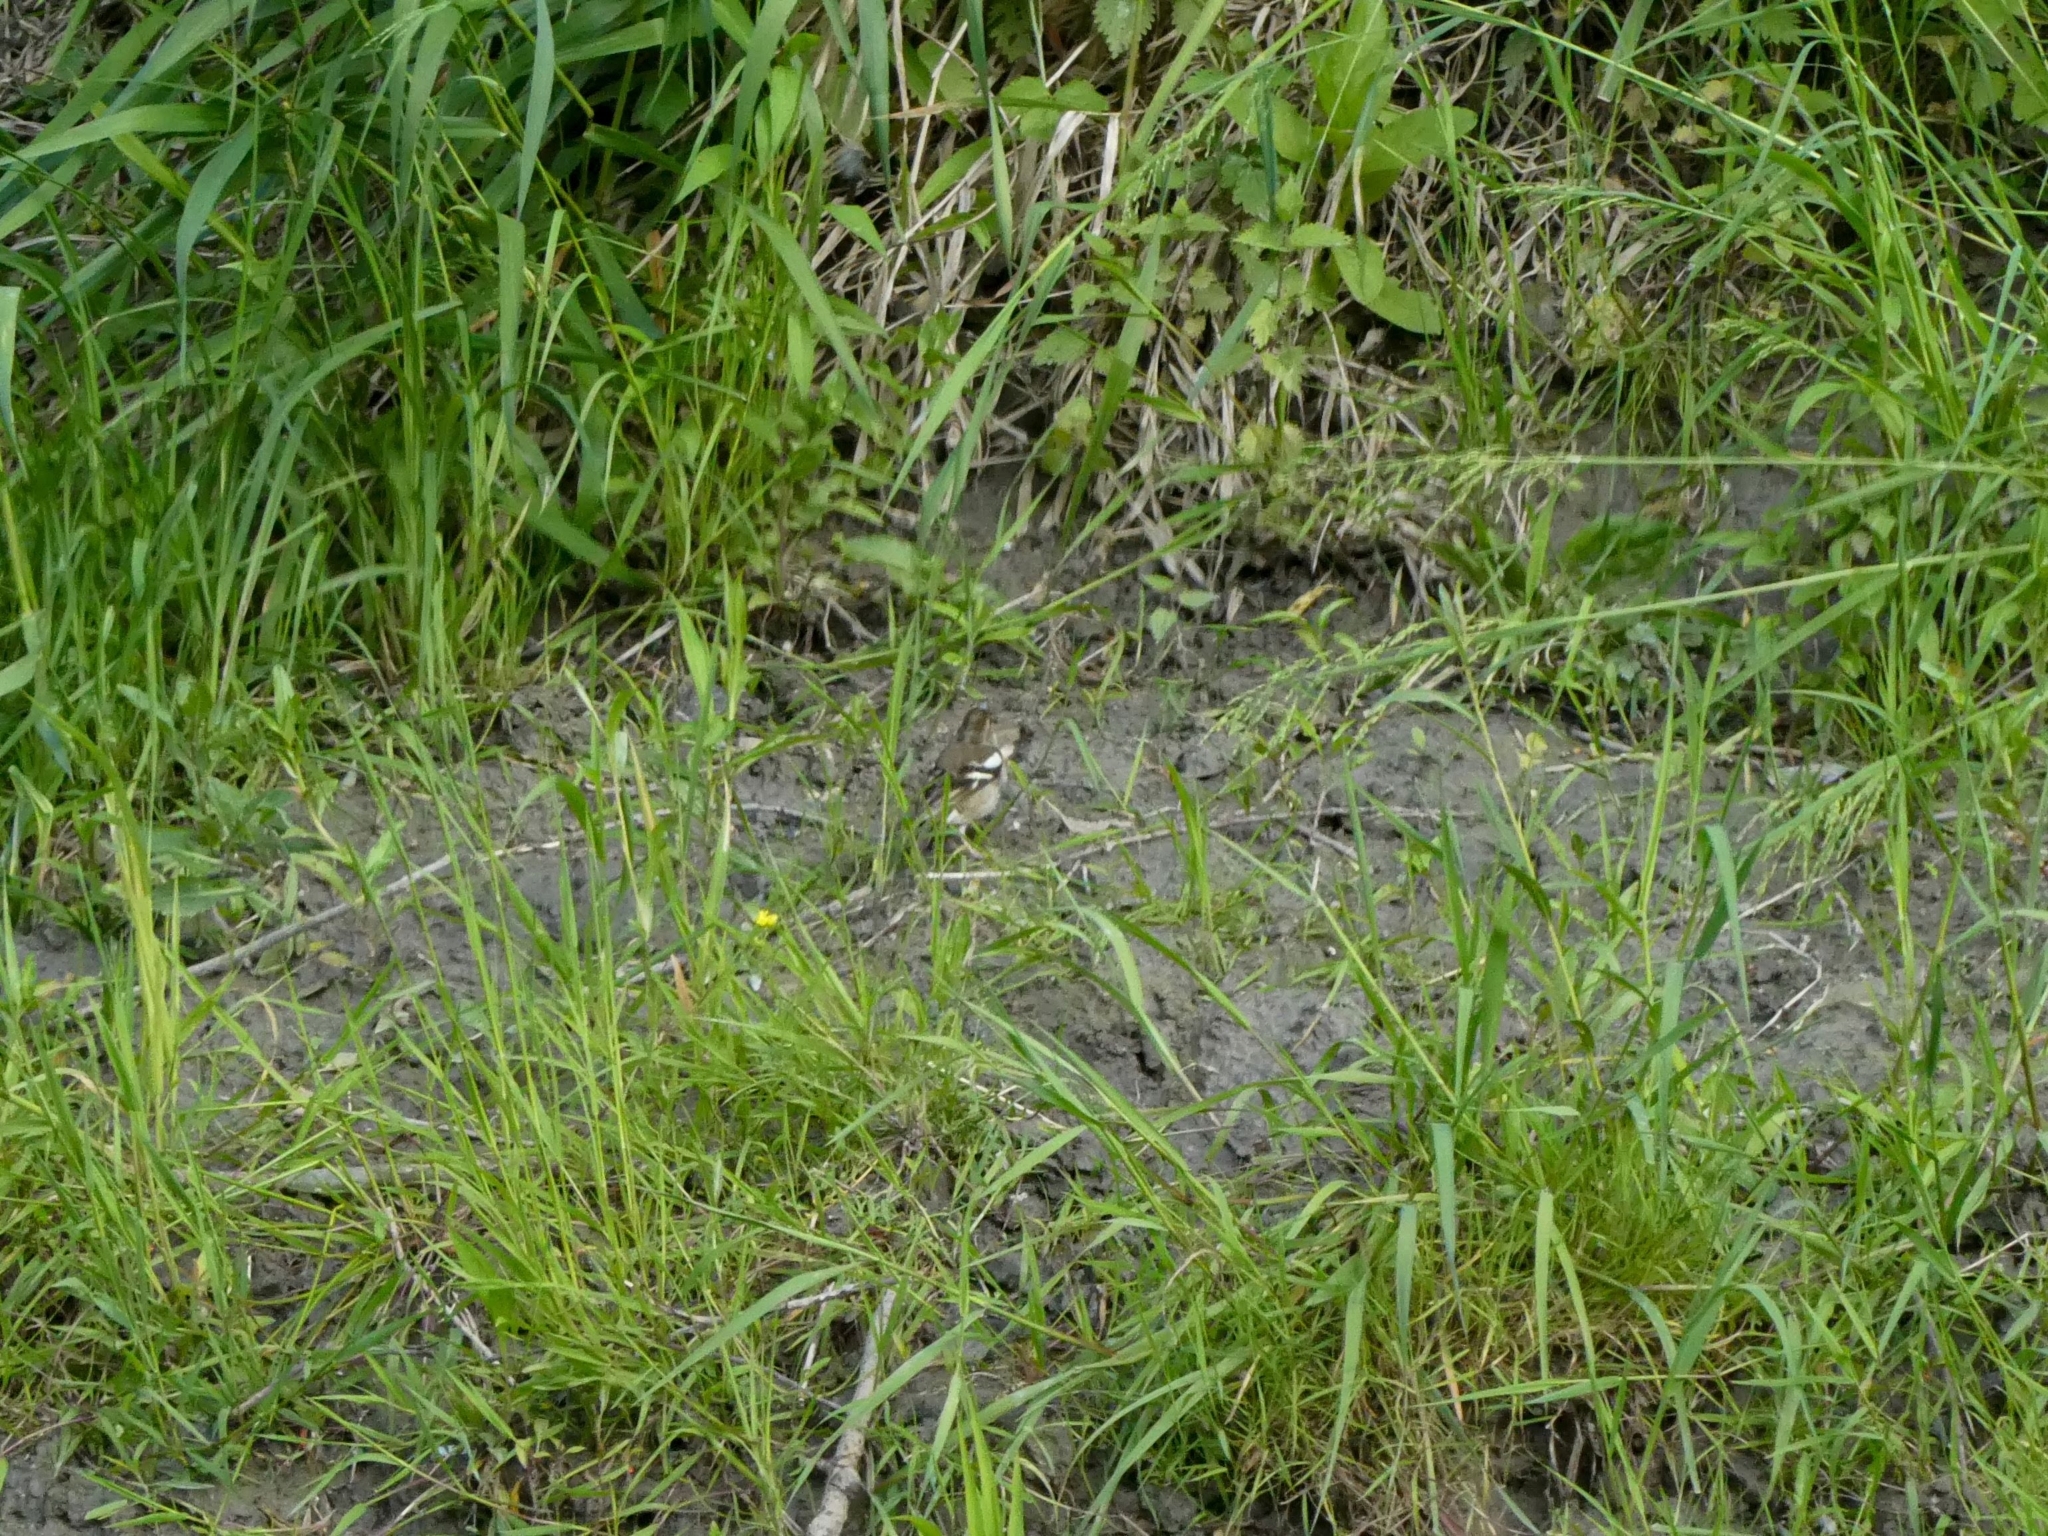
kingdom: Animalia
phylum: Chordata
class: Aves
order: Passeriformes
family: Fringillidae
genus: Fringilla
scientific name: Fringilla coelebs
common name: Common chaffinch
